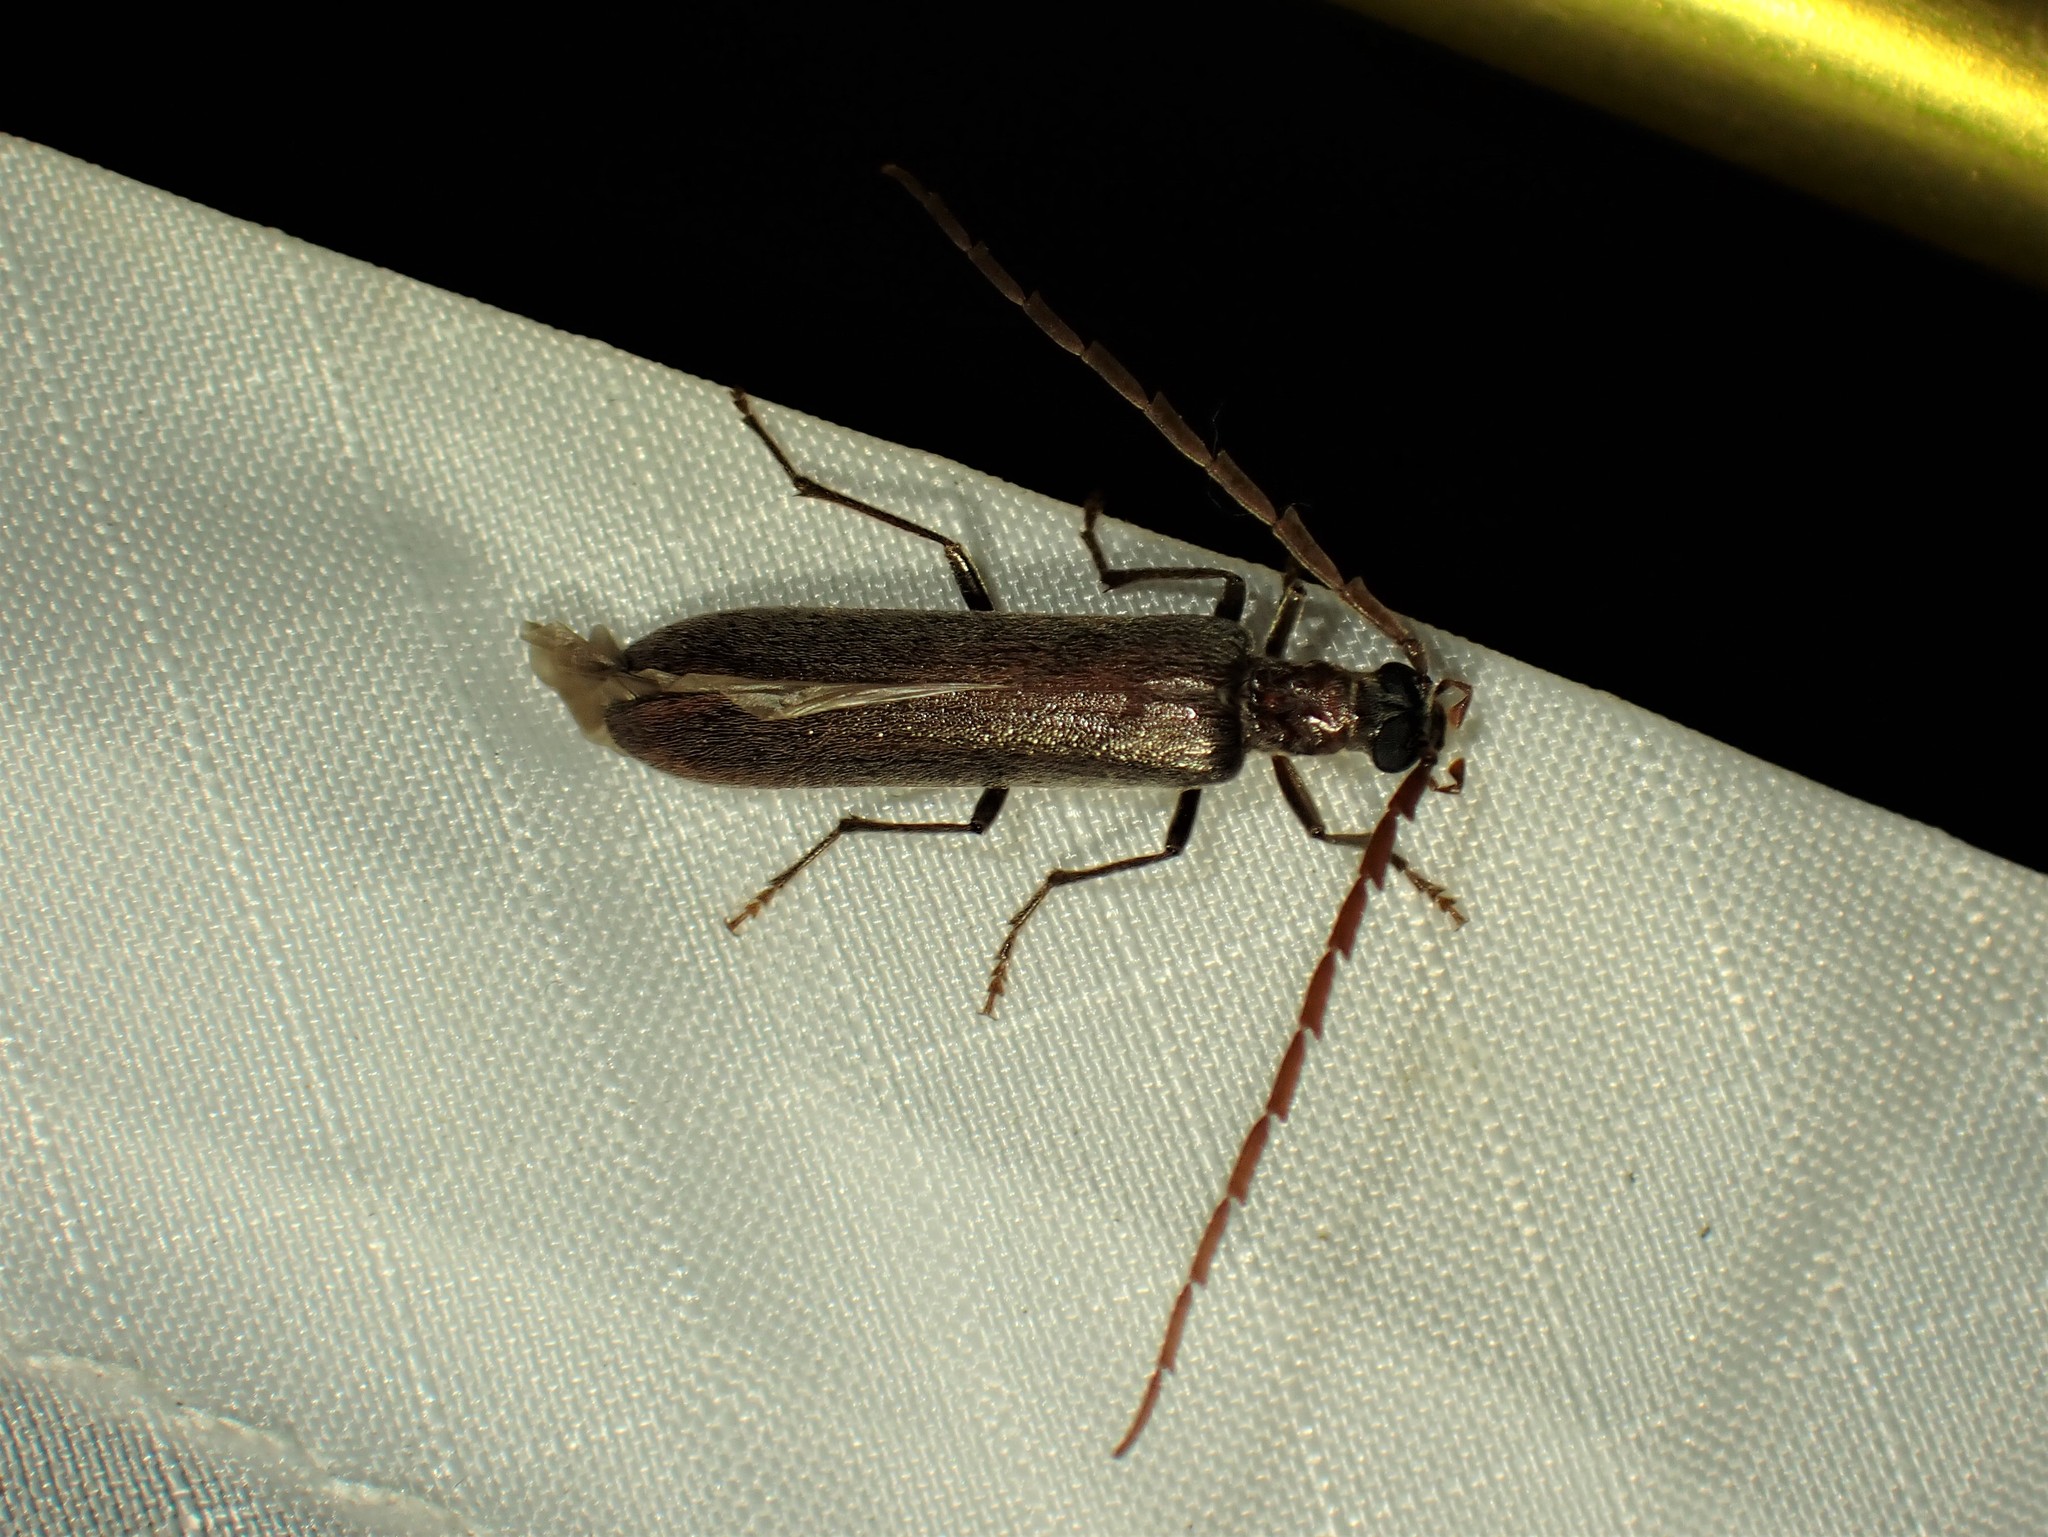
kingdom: Animalia
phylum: Arthropoda
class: Insecta
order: Coleoptera
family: Oedemeridae
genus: Calopus
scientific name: Calopus angustus
